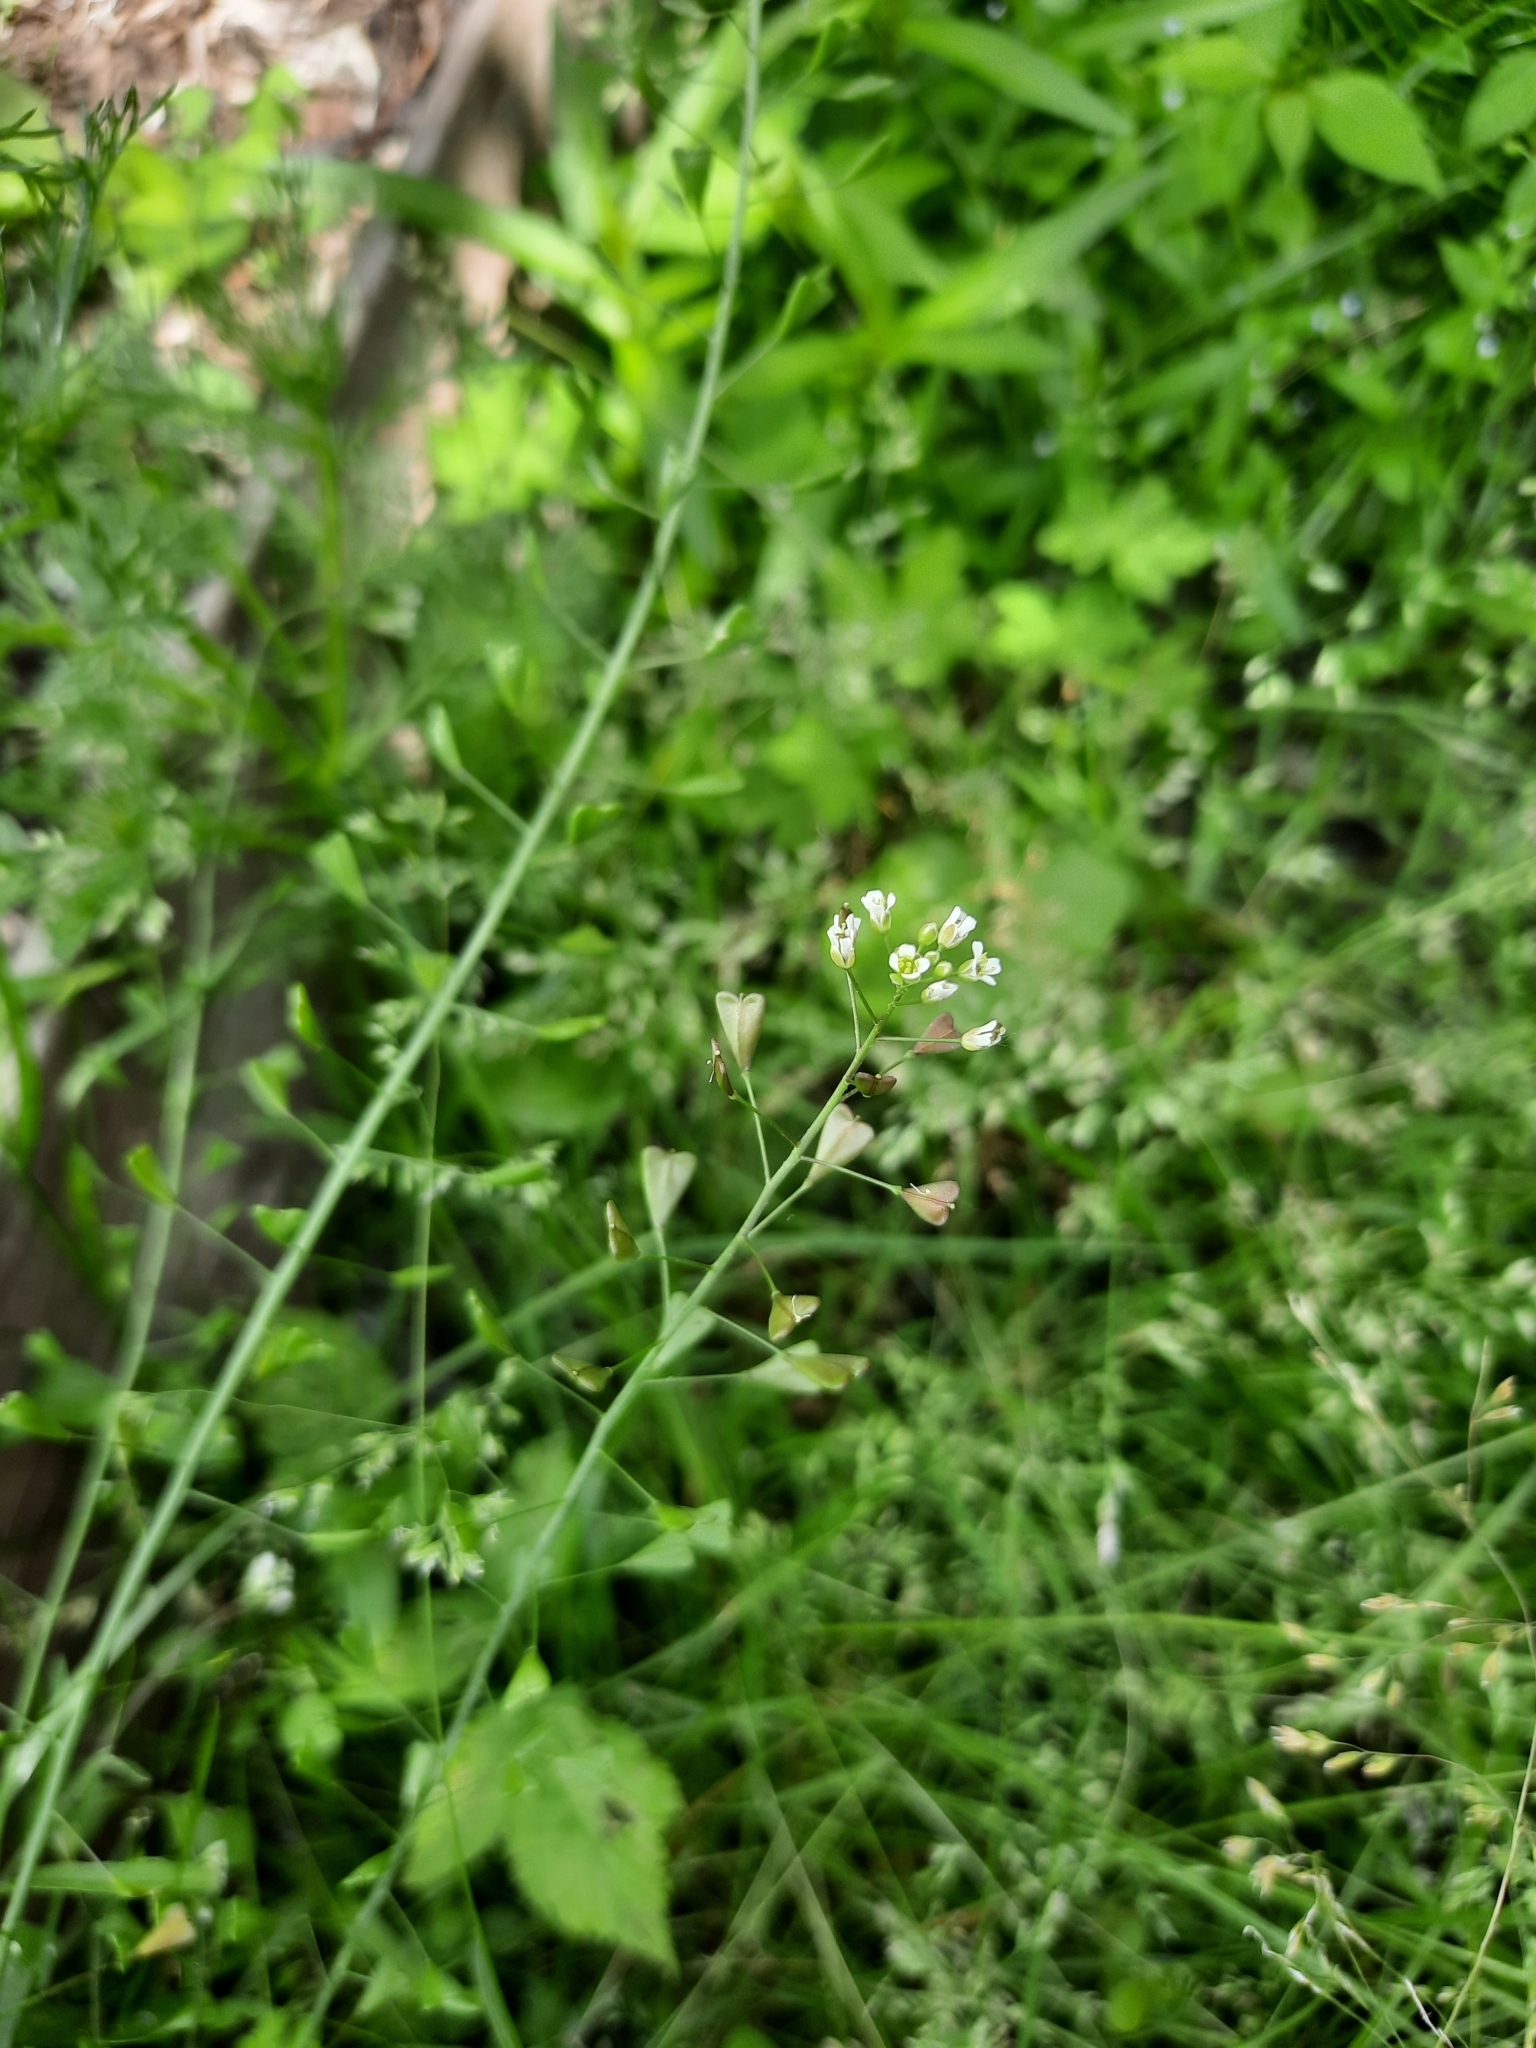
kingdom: Plantae
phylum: Tracheophyta
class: Magnoliopsida
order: Brassicales
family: Brassicaceae
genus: Capsella
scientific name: Capsella bursa-pastoris
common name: Shepherd's purse
